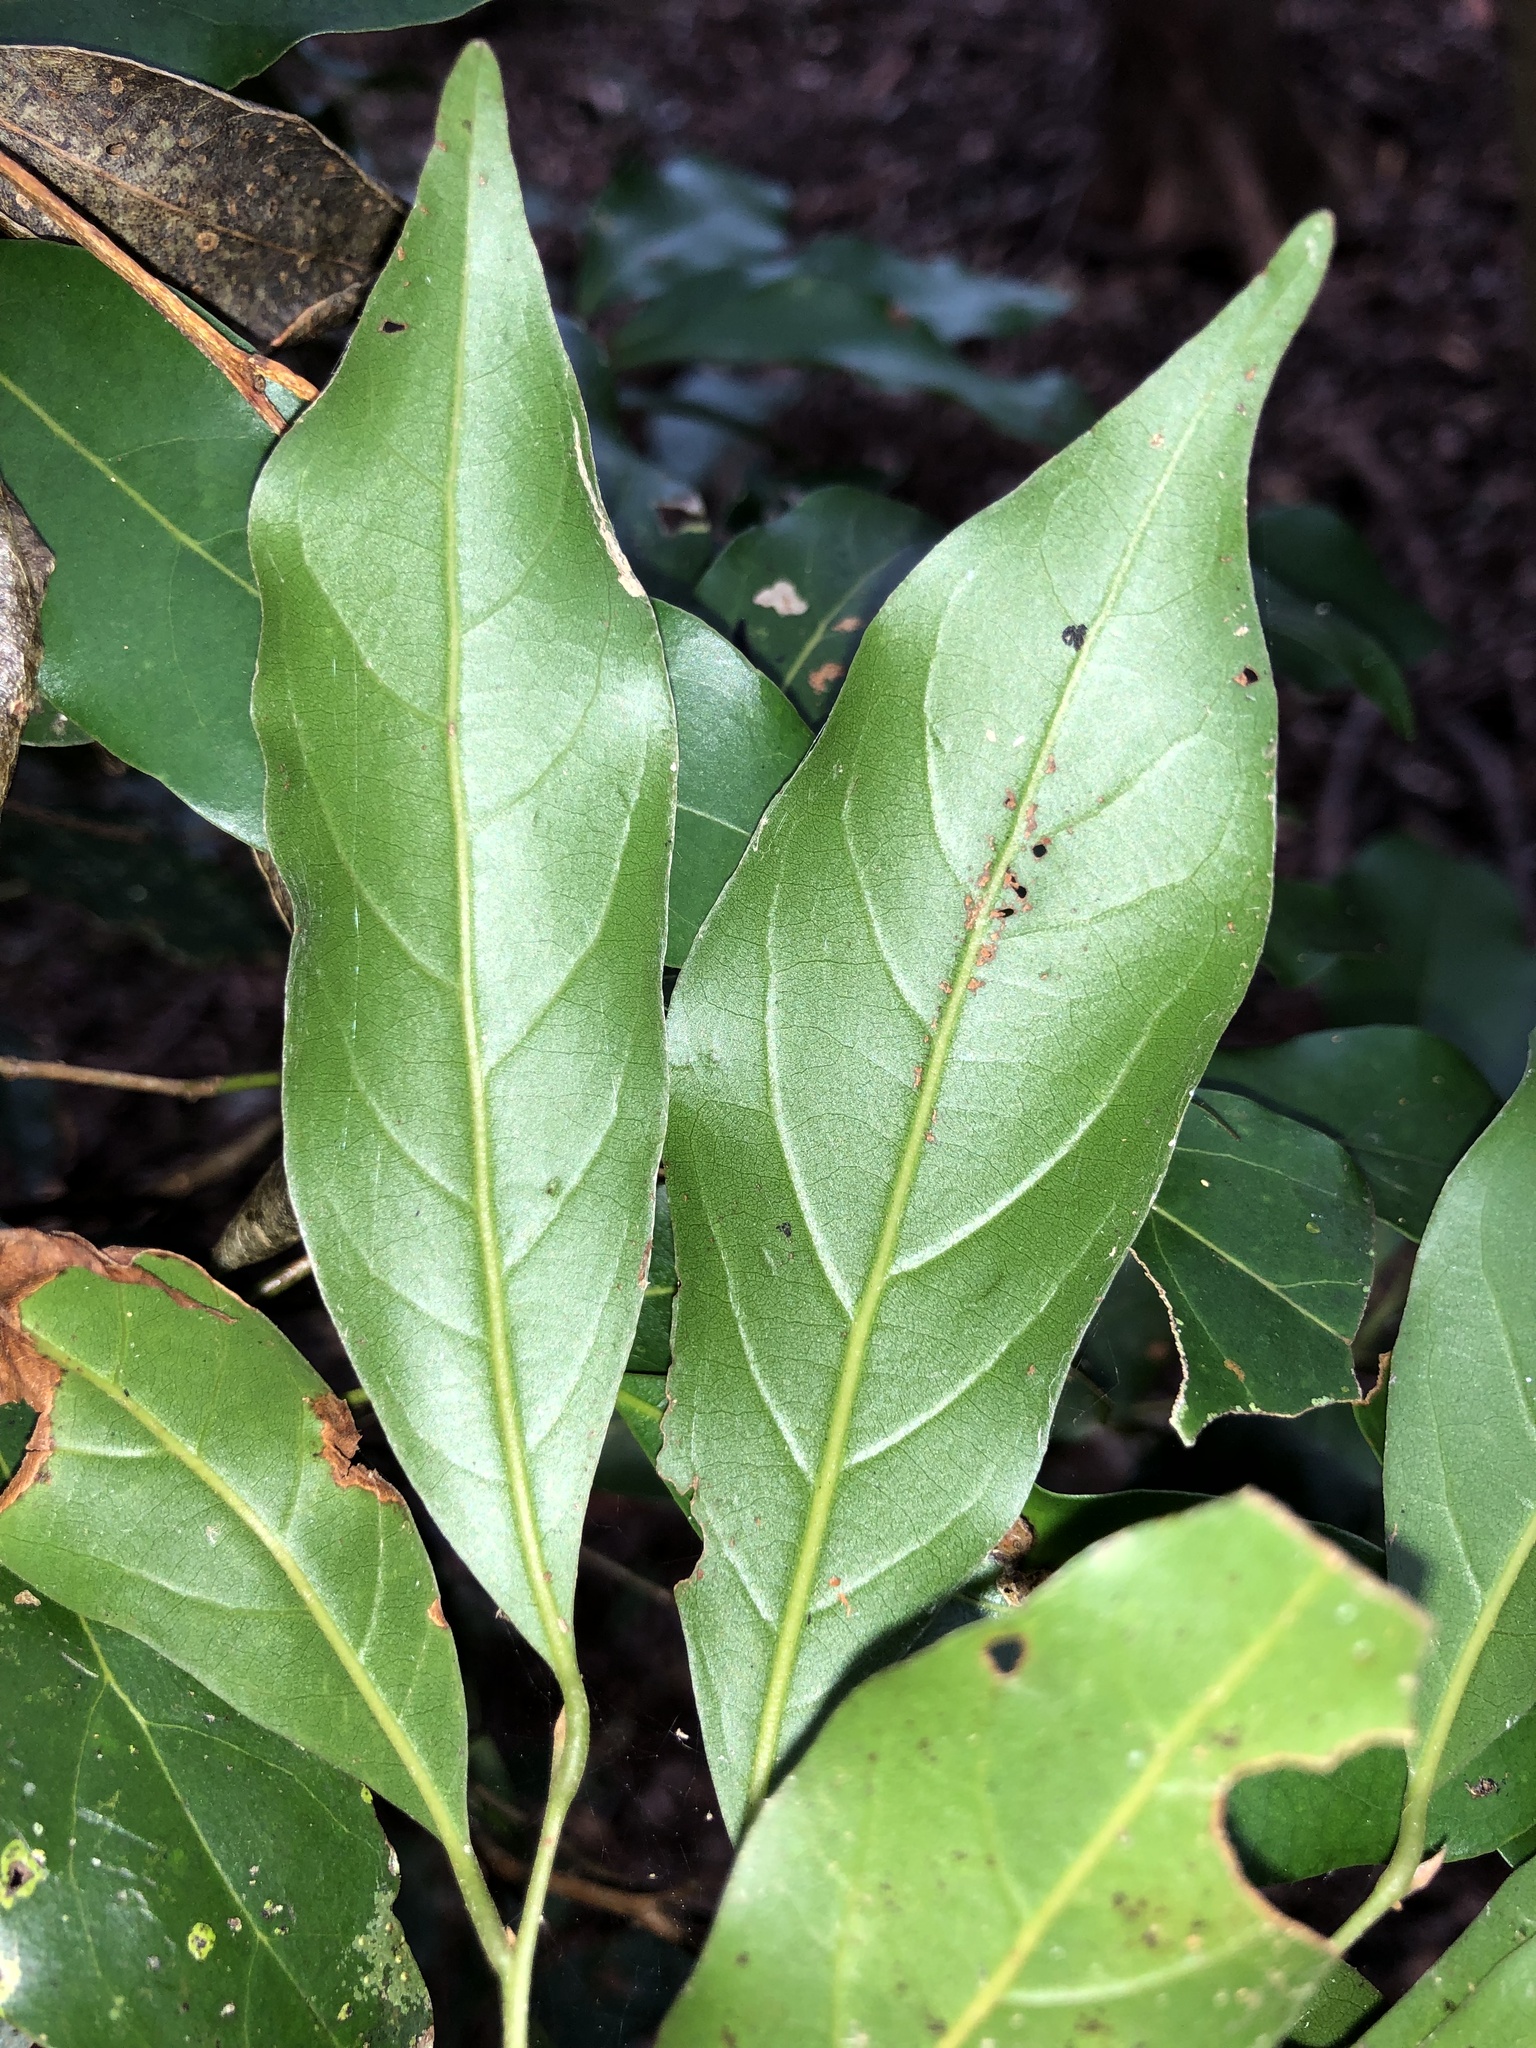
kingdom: Plantae
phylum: Tracheophyta
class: Magnoliopsida
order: Laurales
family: Lauraceae
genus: Endiandra
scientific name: Endiandra muelleri
